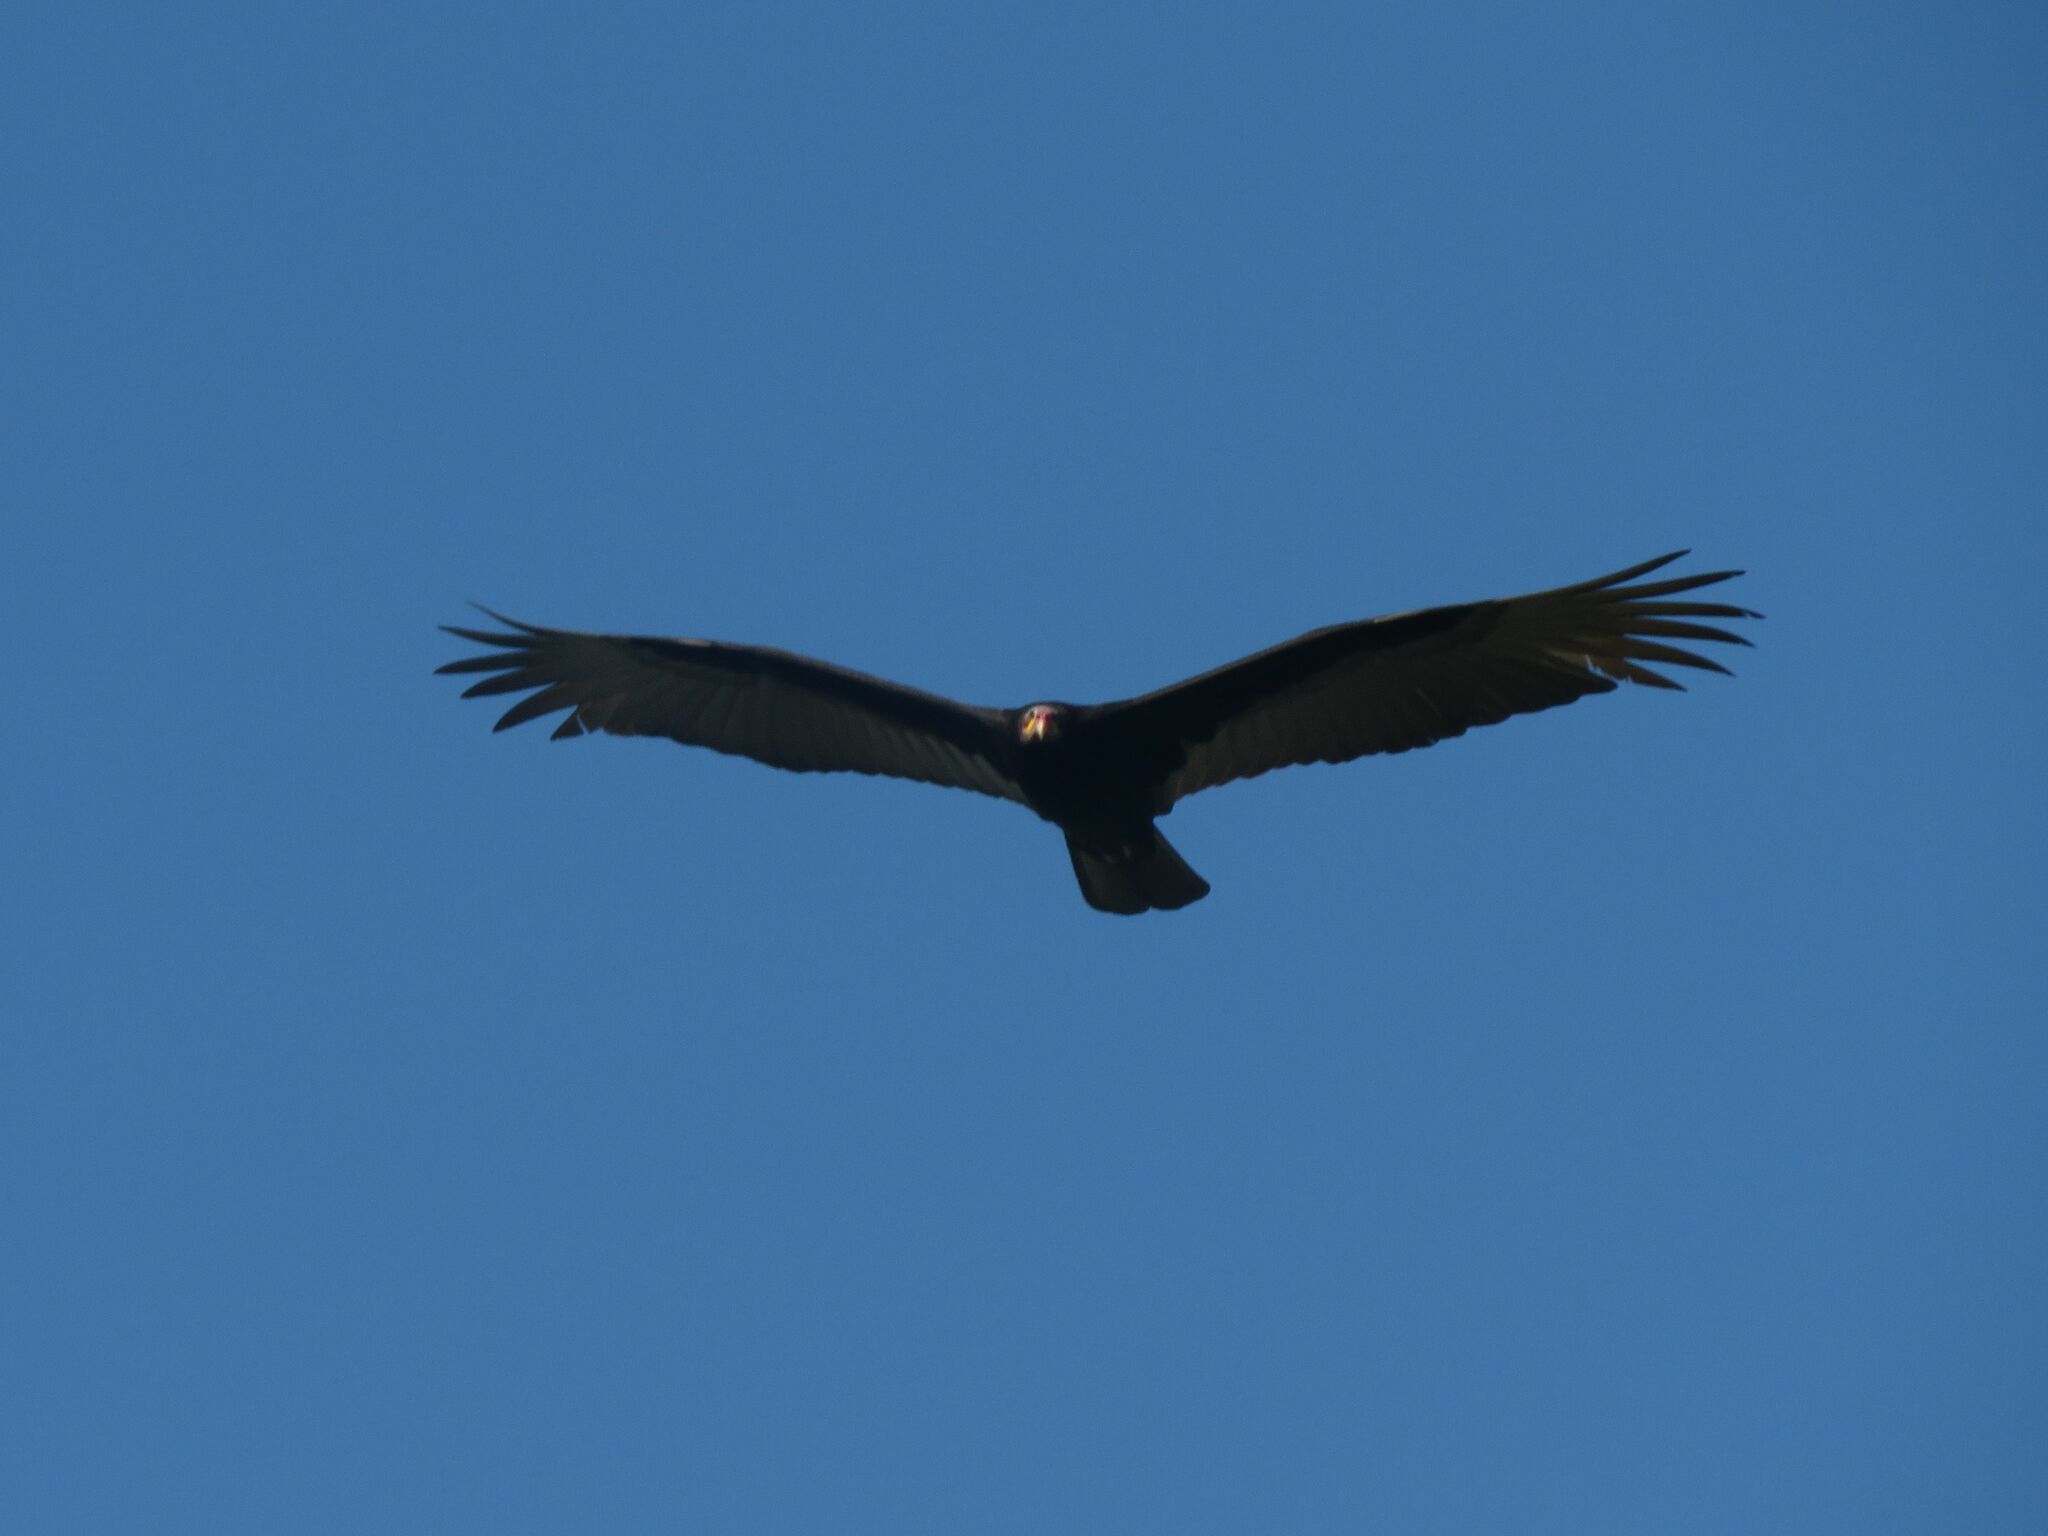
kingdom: Animalia
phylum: Chordata
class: Aves
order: Accipitriformes
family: Cathartidae
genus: Cathartes
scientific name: Cathartes burrovianus
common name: Lesser yellow-headed vulture
